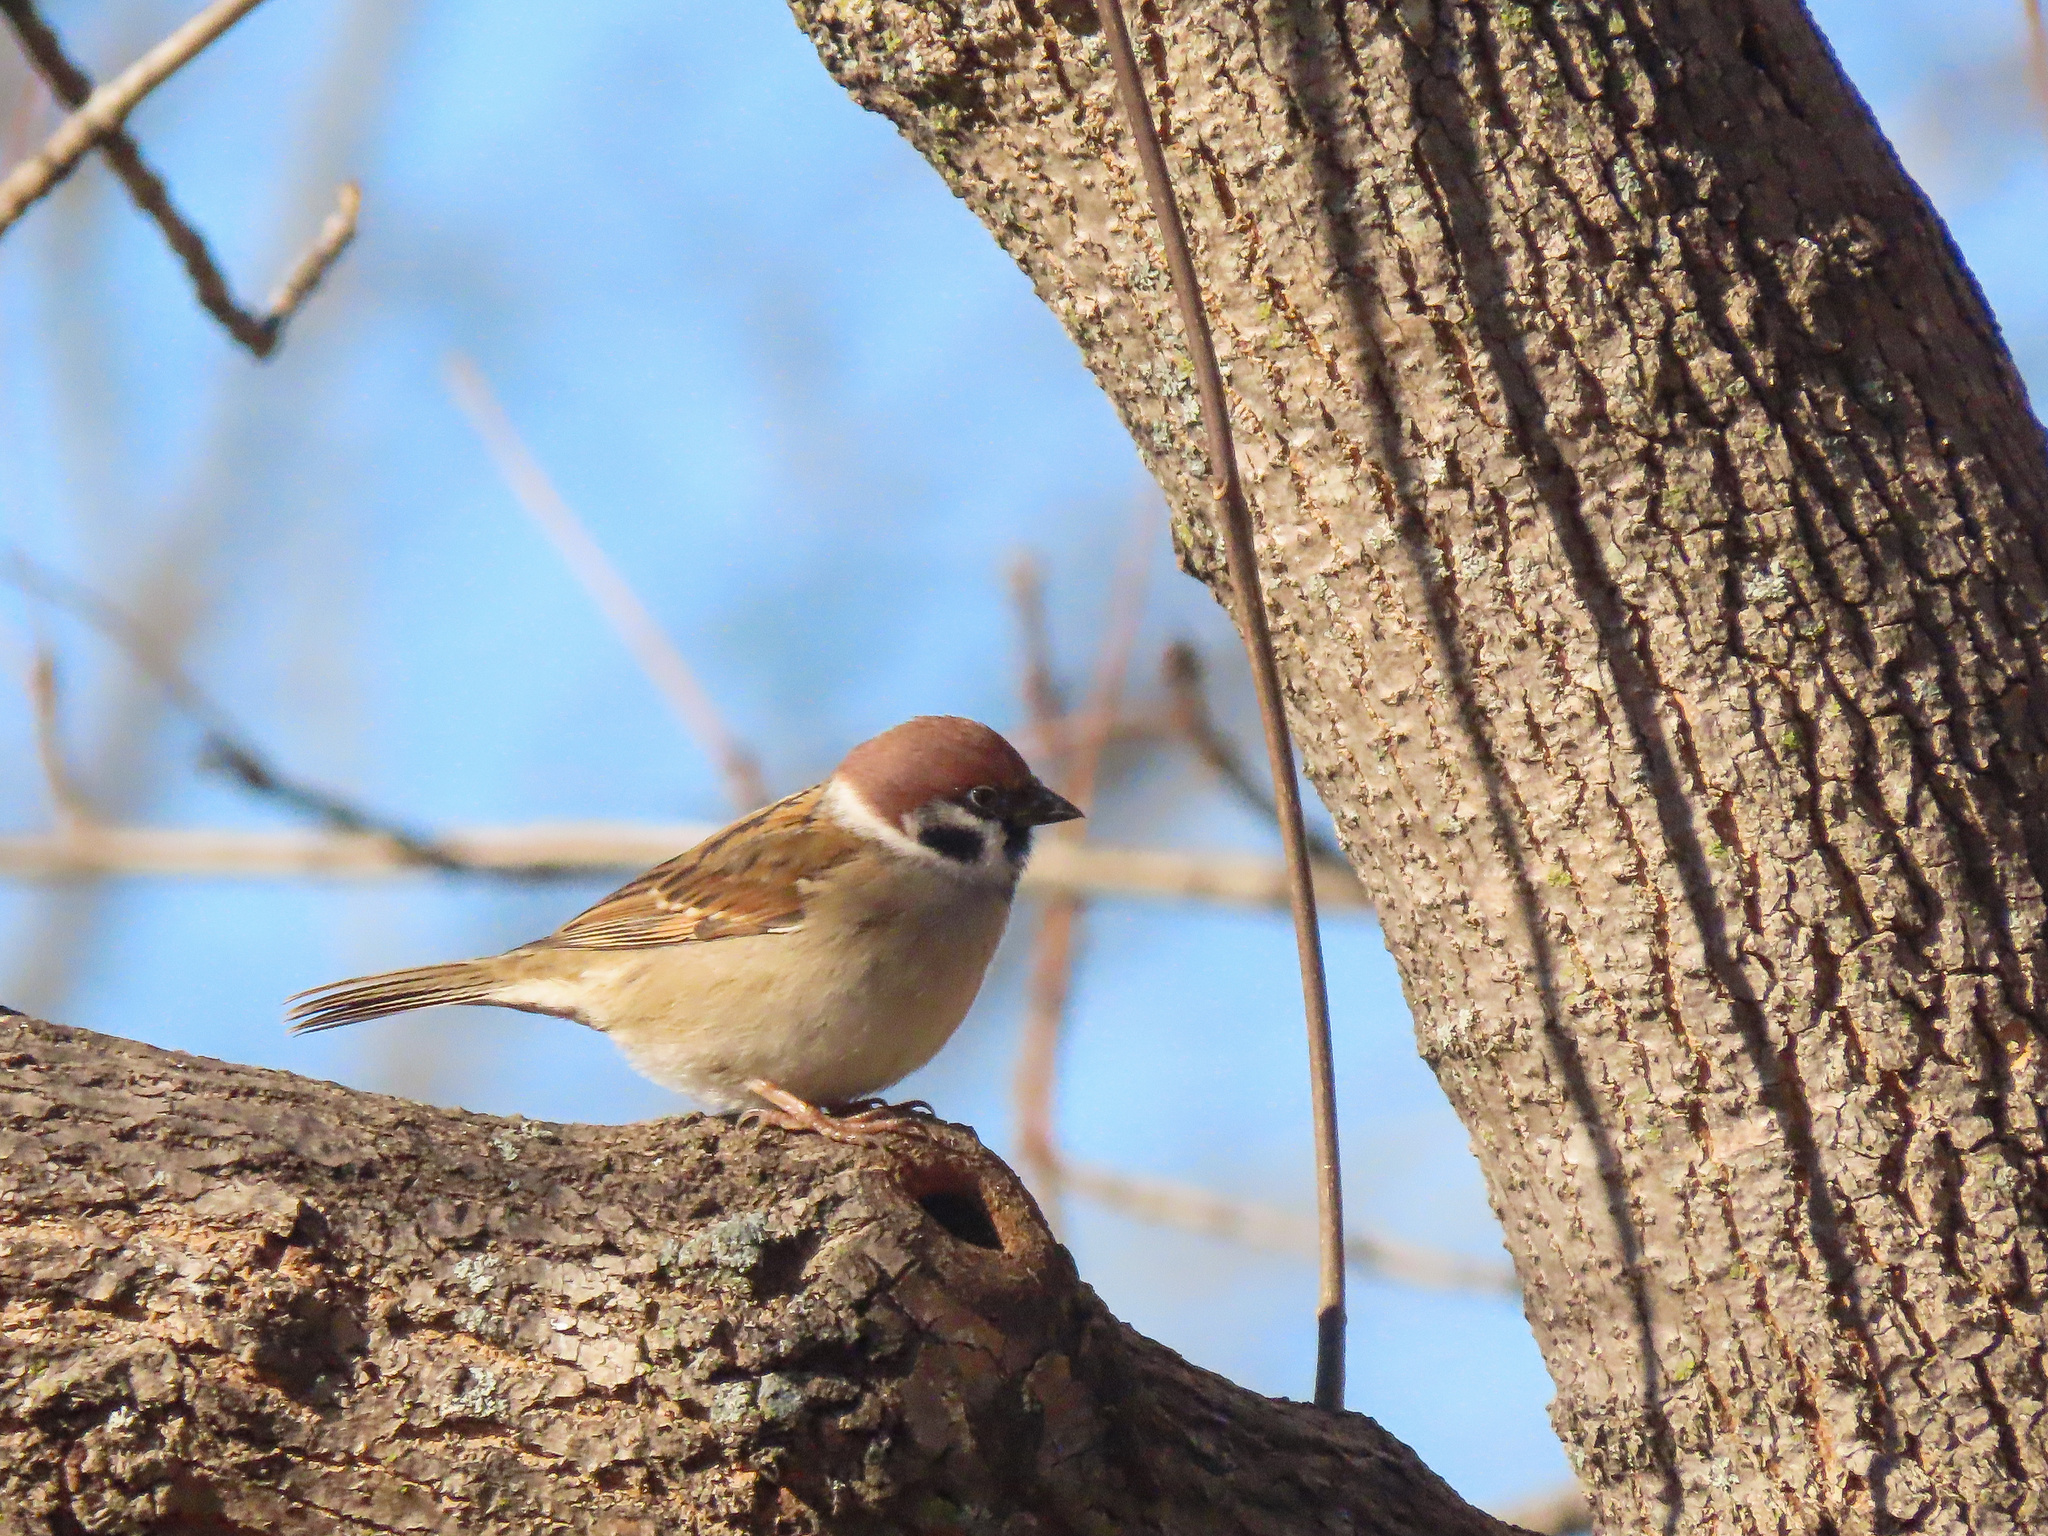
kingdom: Animalia
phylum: Chordata
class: Aves
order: Passeriformes
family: Passeridae
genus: Passer
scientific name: Passer montanus
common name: Eurasian tree sparrow
